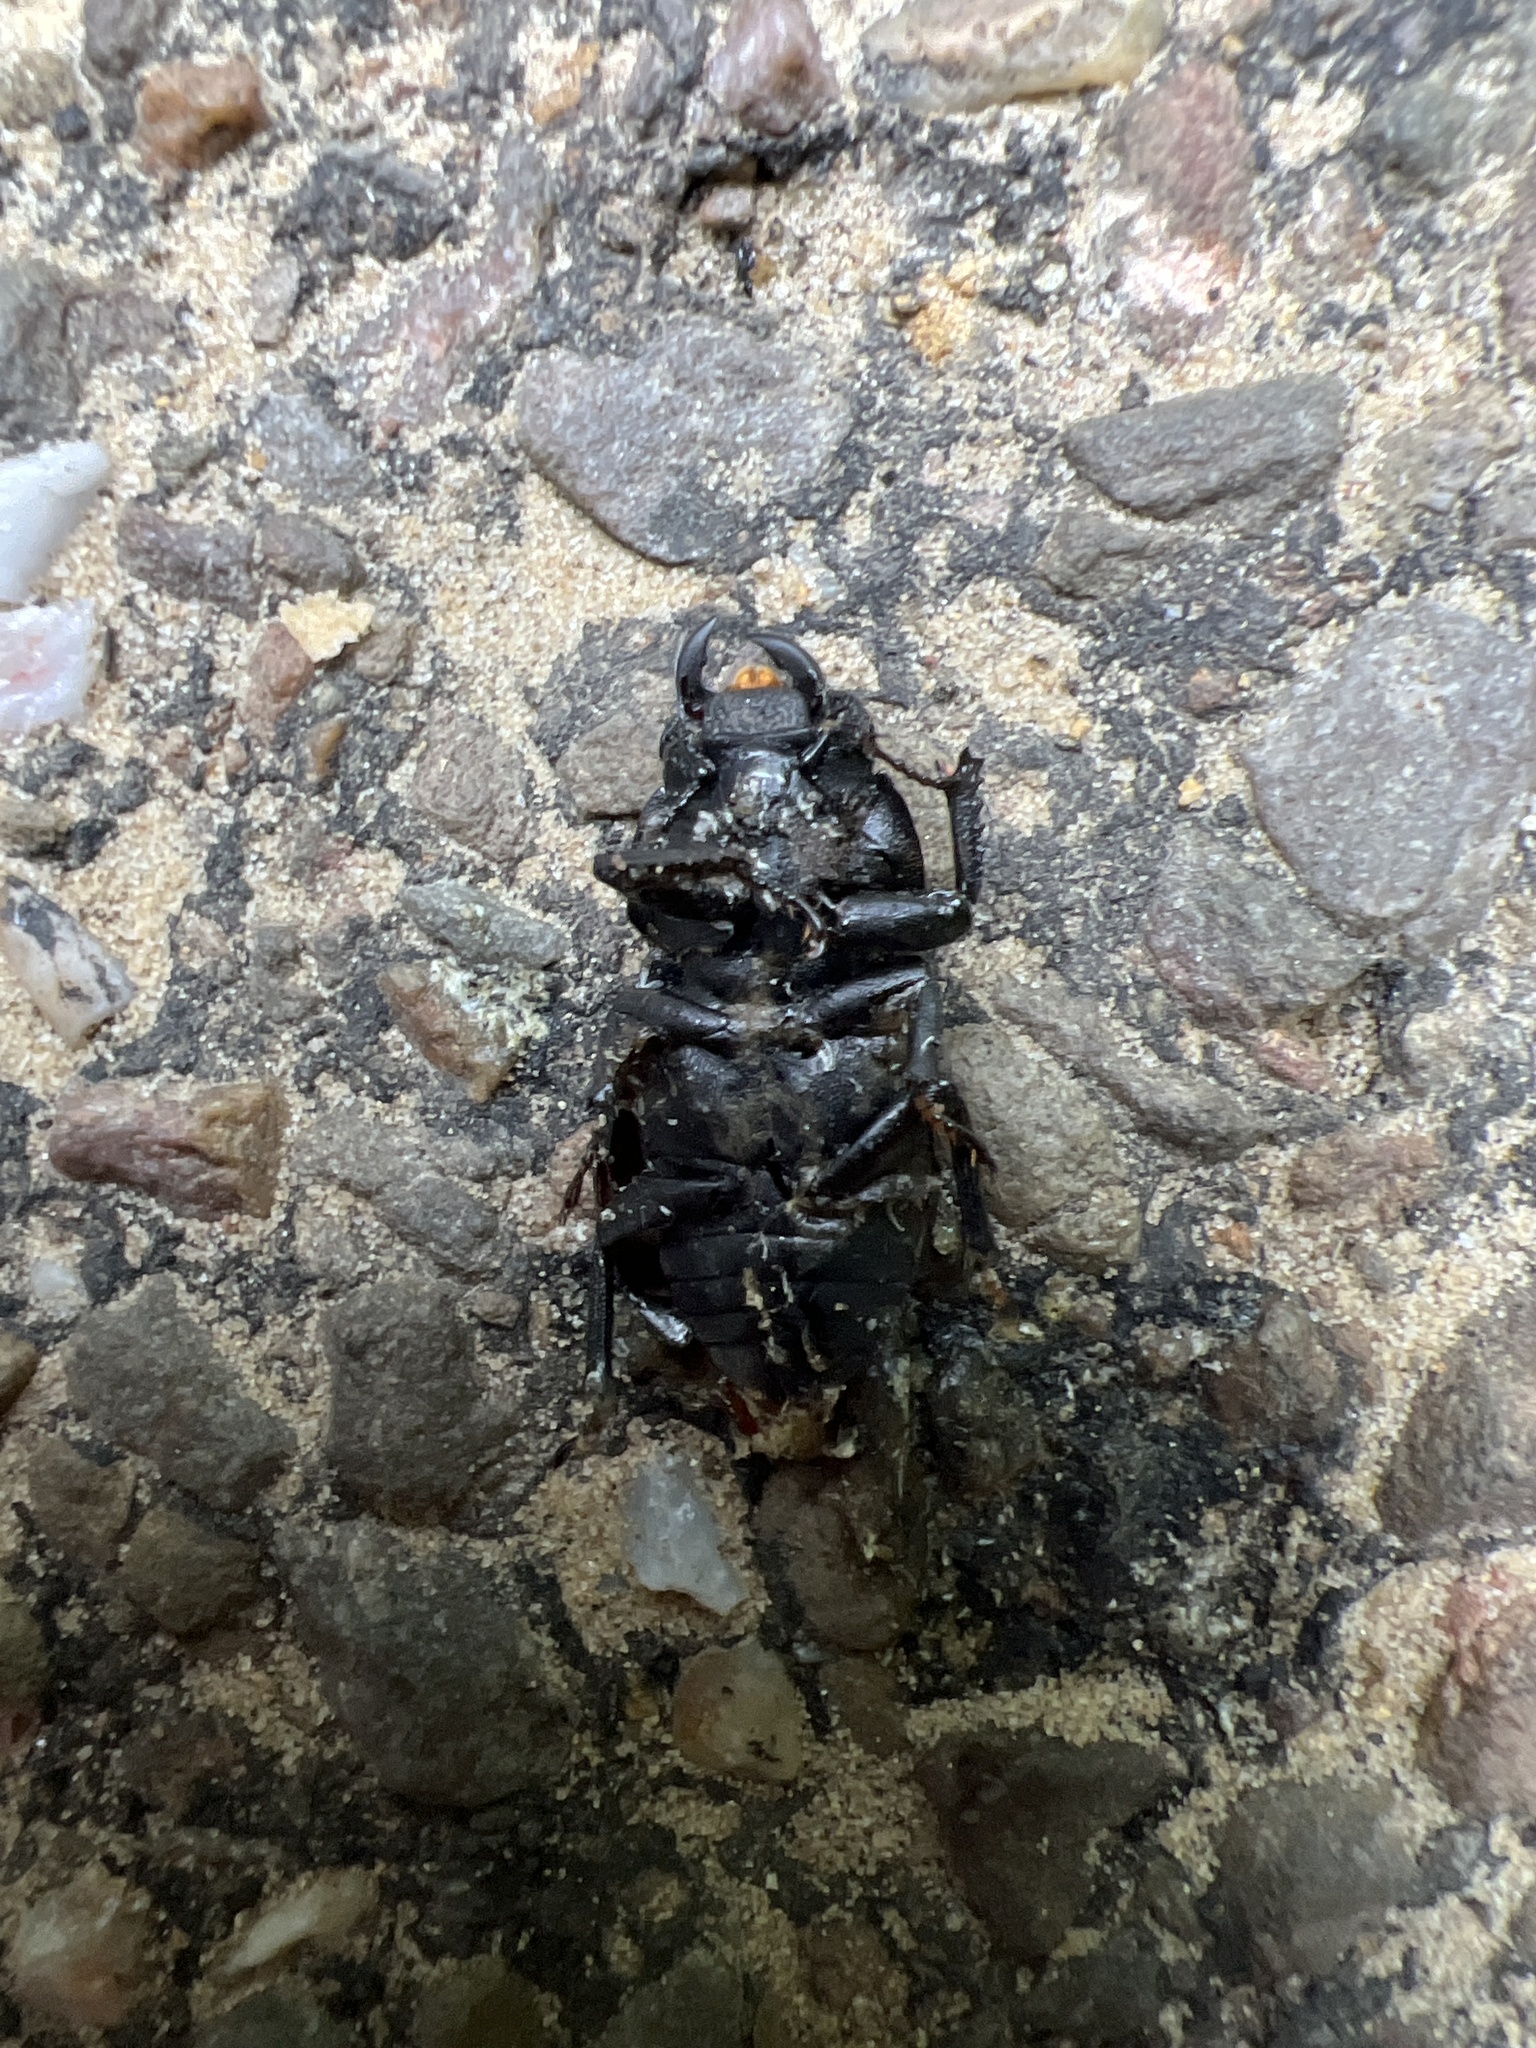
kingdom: Animalia
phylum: Arthropoda
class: Insecta
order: Coleoptera
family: Lucanidae
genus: Dorcus
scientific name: Dorcus parallelipipedus
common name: Lesser stag beetle
